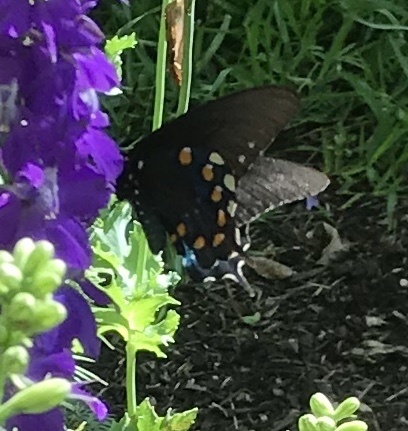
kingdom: Animalia
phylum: Arthropoda
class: Insecta
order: Lepidoptera
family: Papilionidae
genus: Battus
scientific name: Battus philenor
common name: Pipevine swallowtail
